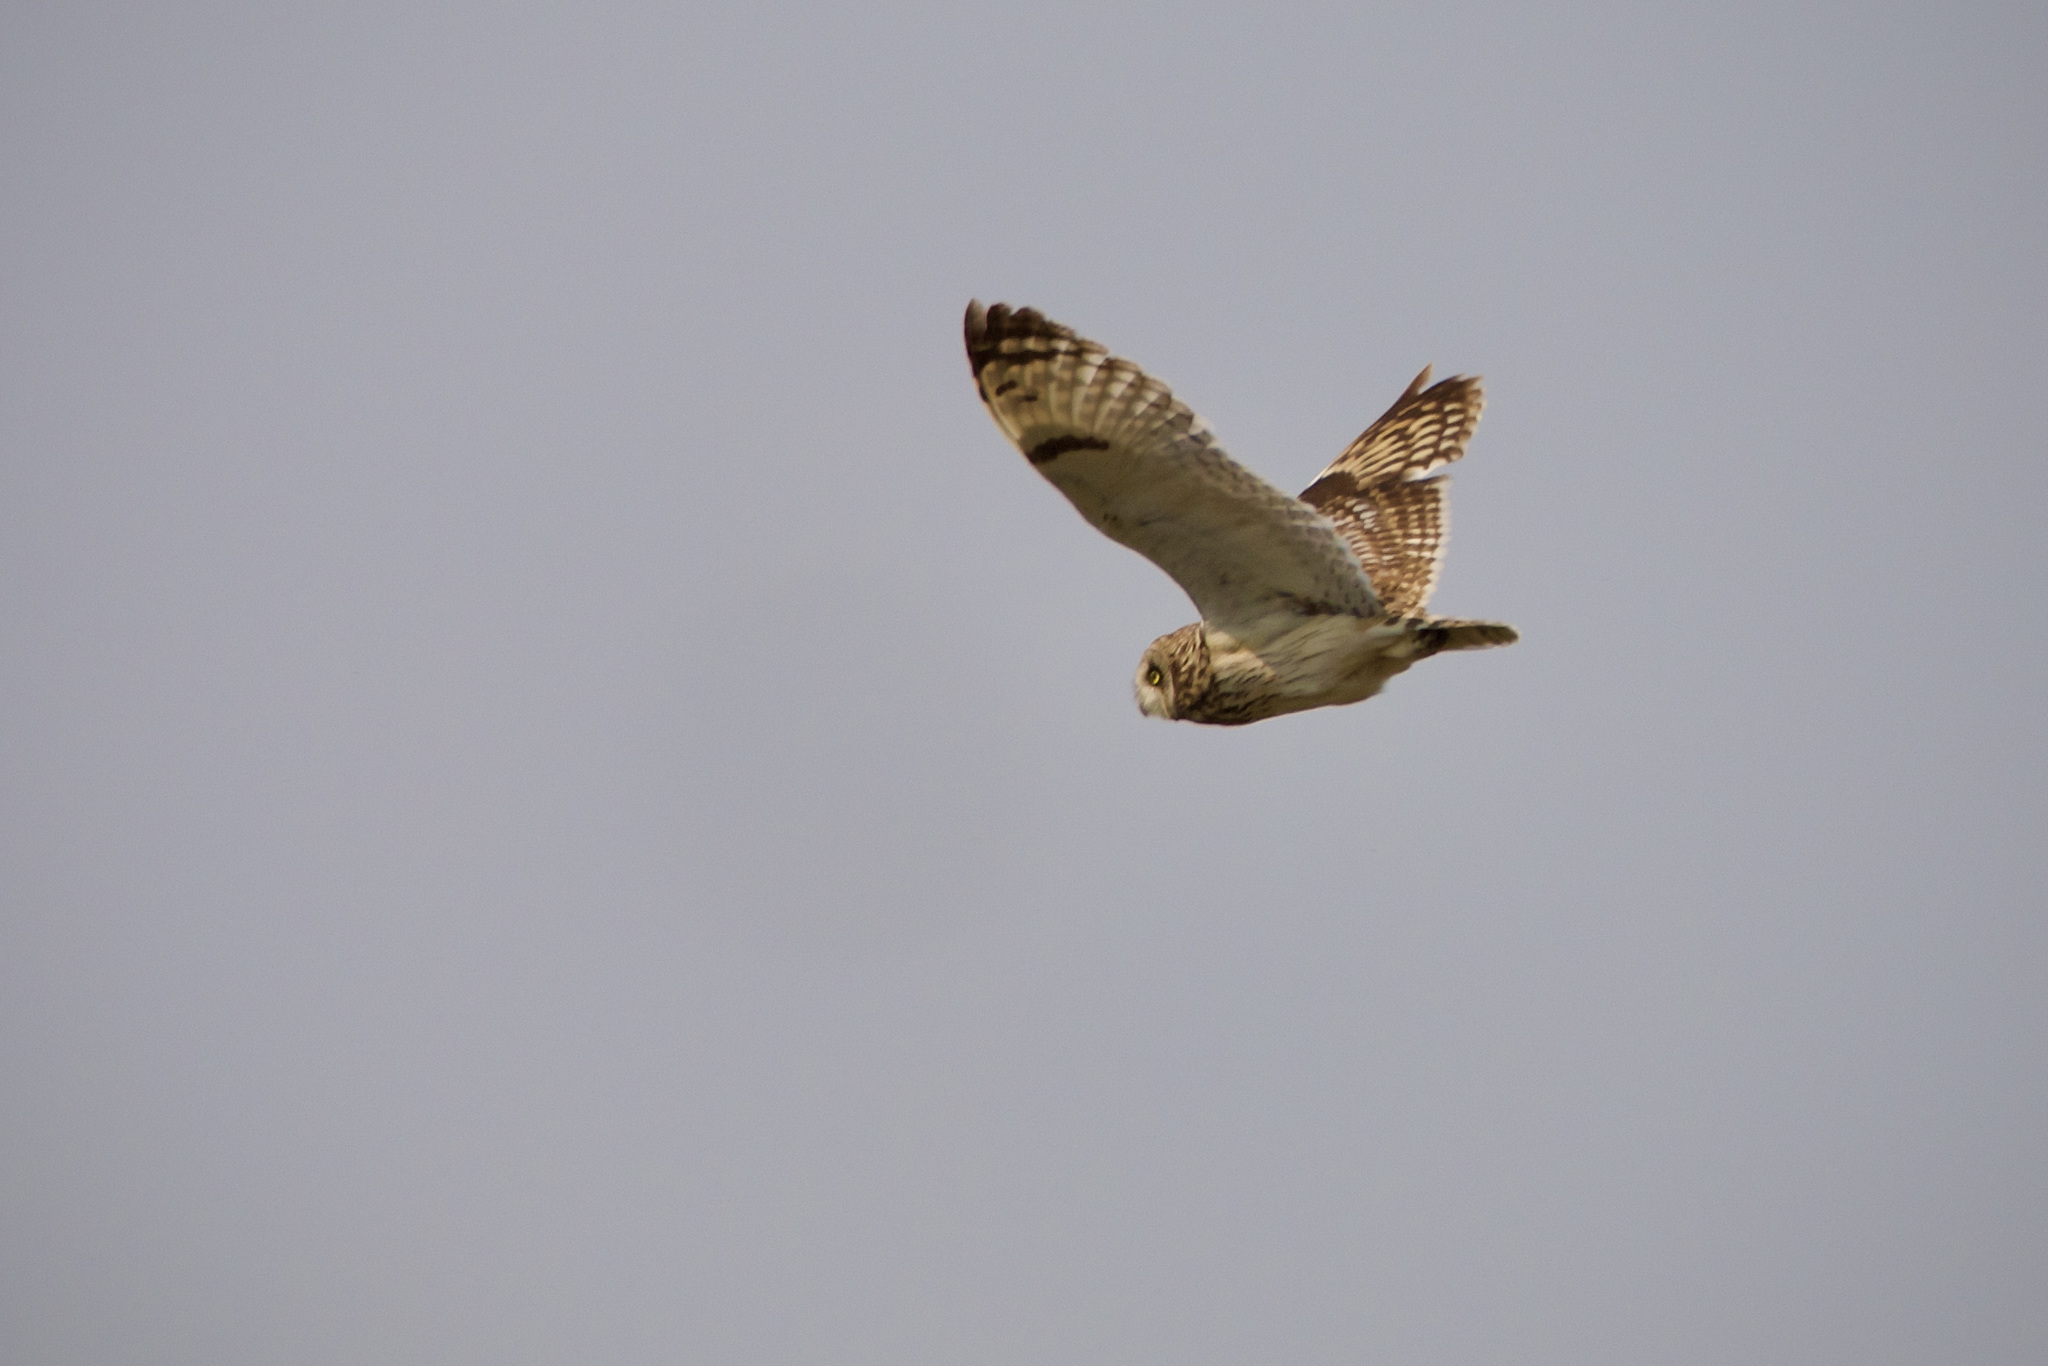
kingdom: Animalia
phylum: Chordata
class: Aves
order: Strigiformes
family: Strigidae
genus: Asio
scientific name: Asio flammeus
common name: Short-eared owl
